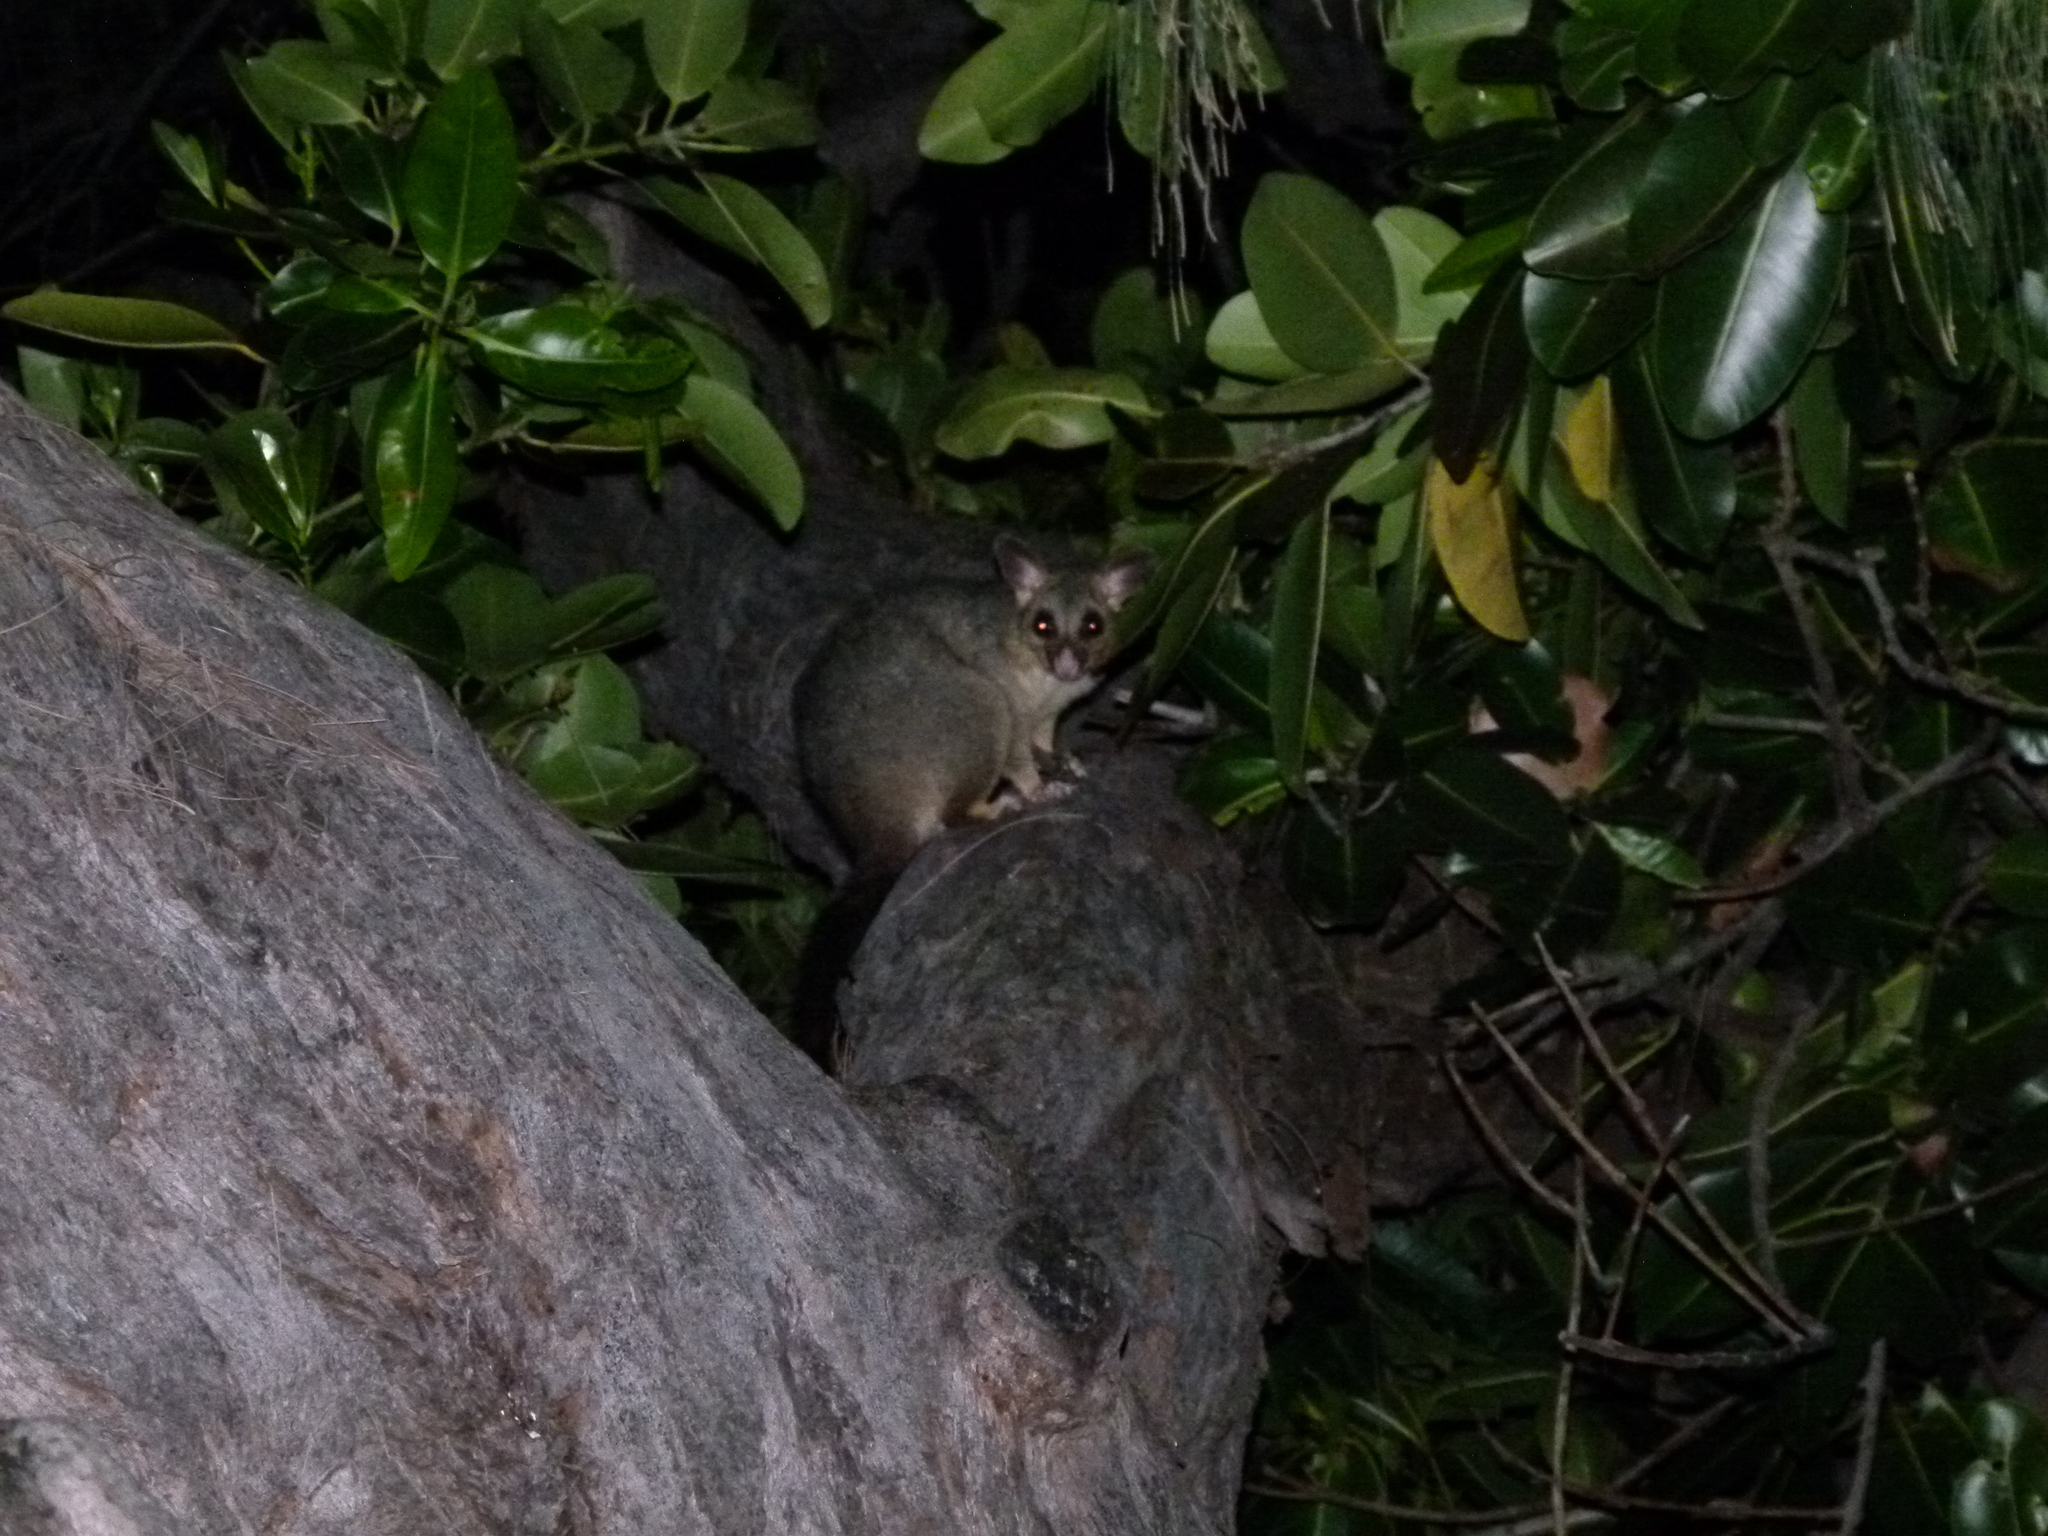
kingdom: Animalia
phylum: Chordata
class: Mammalia
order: Diprotodontia
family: Phalangeridae
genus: Trichosurus
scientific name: Trichosurus vulpecula
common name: Common brushtail
